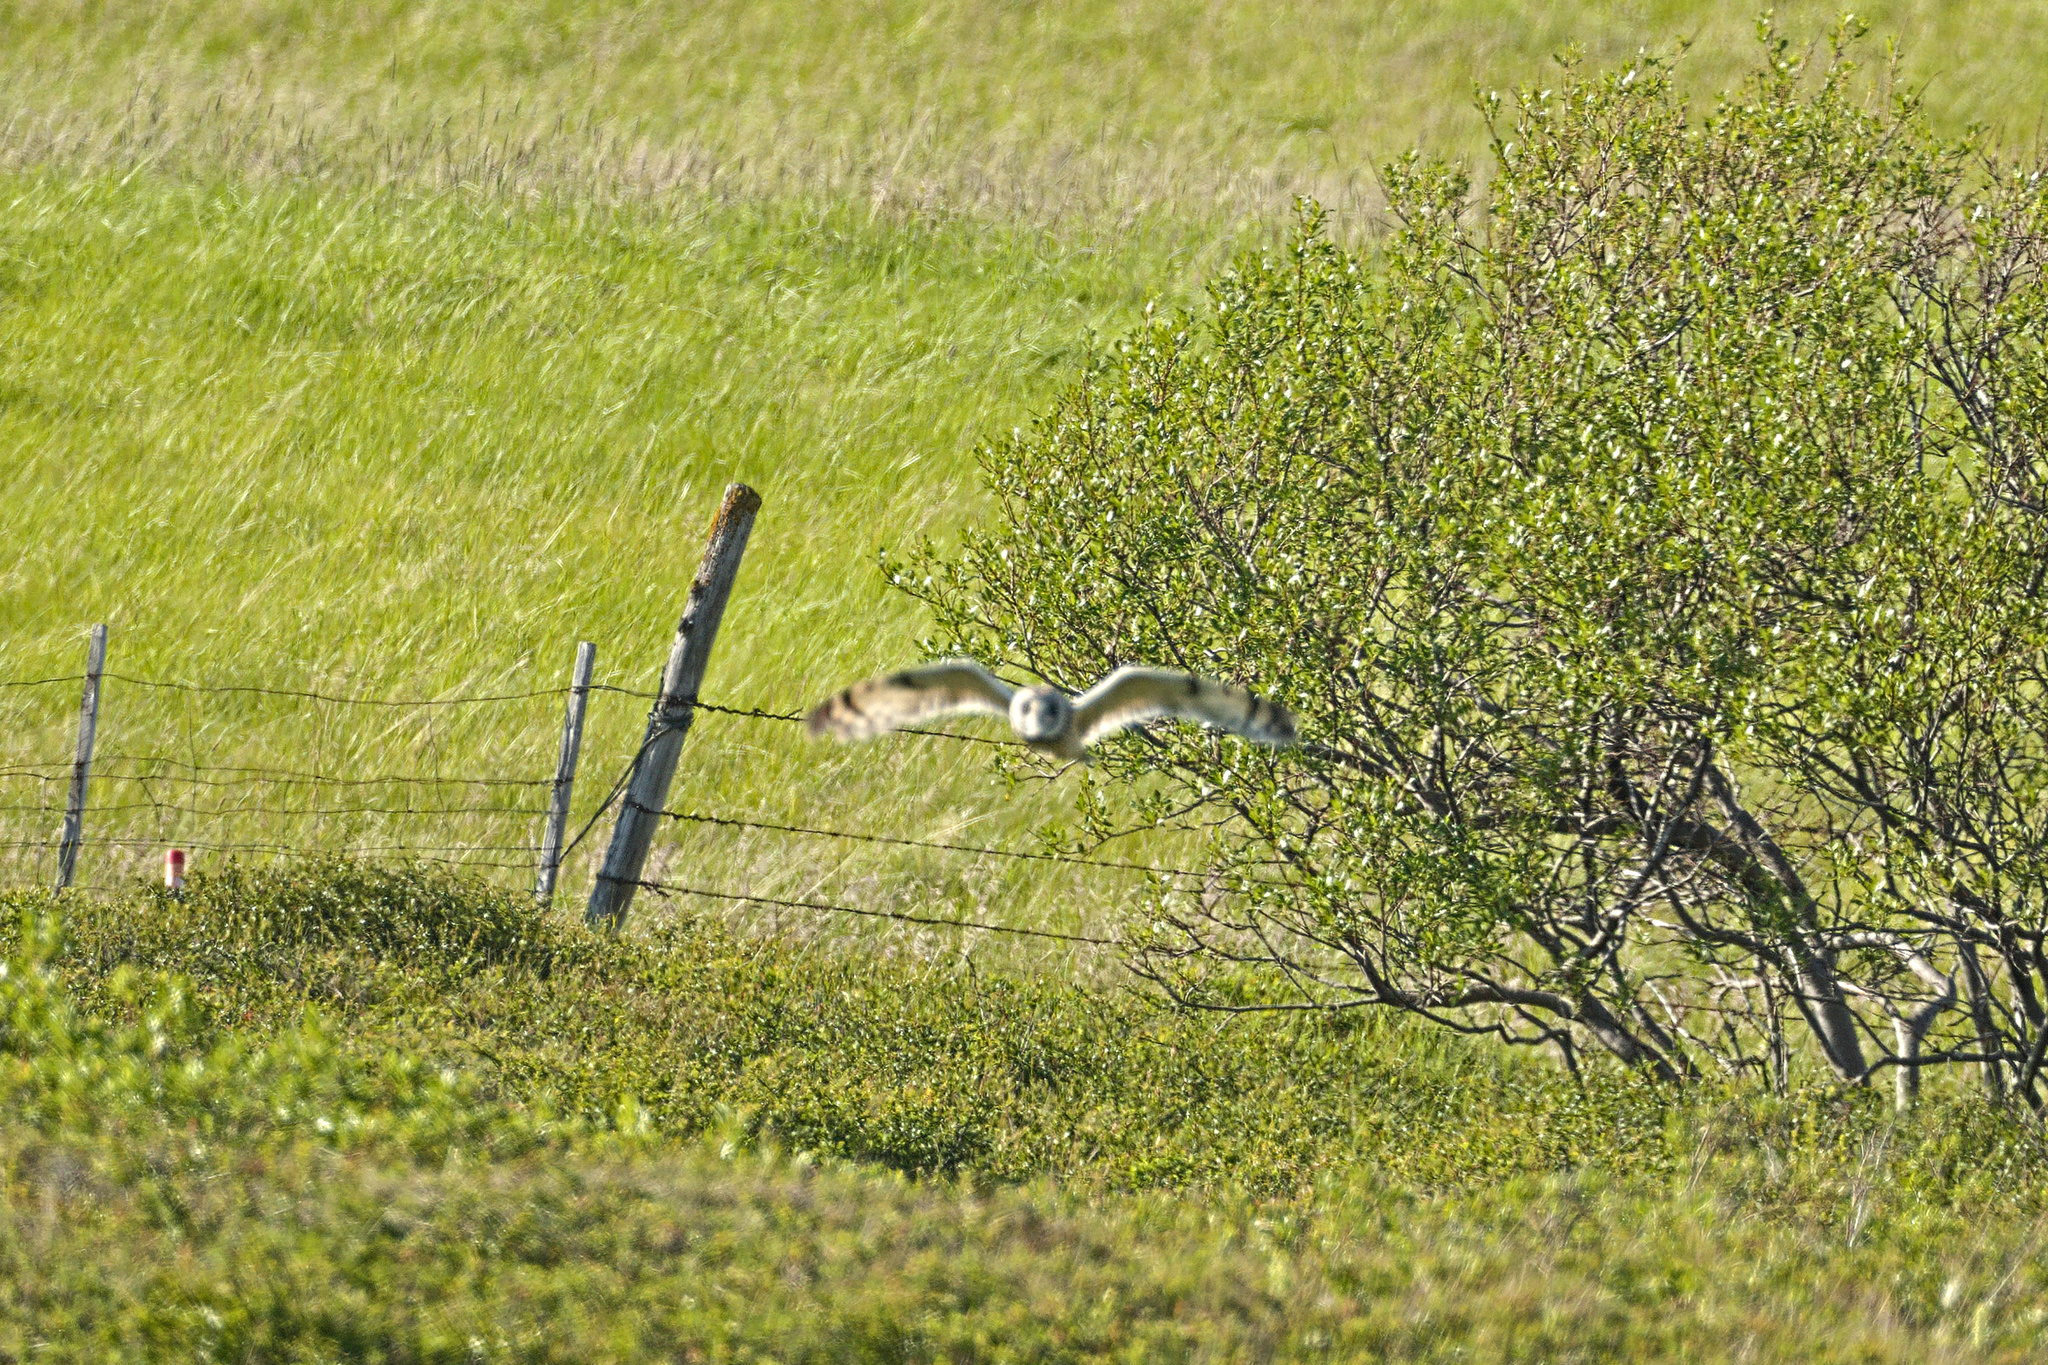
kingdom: Animalia
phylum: Chordata
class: Aves
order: Strigiformes
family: Strigidae
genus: Asio
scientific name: Asio flammeus
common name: Short-eared owl
